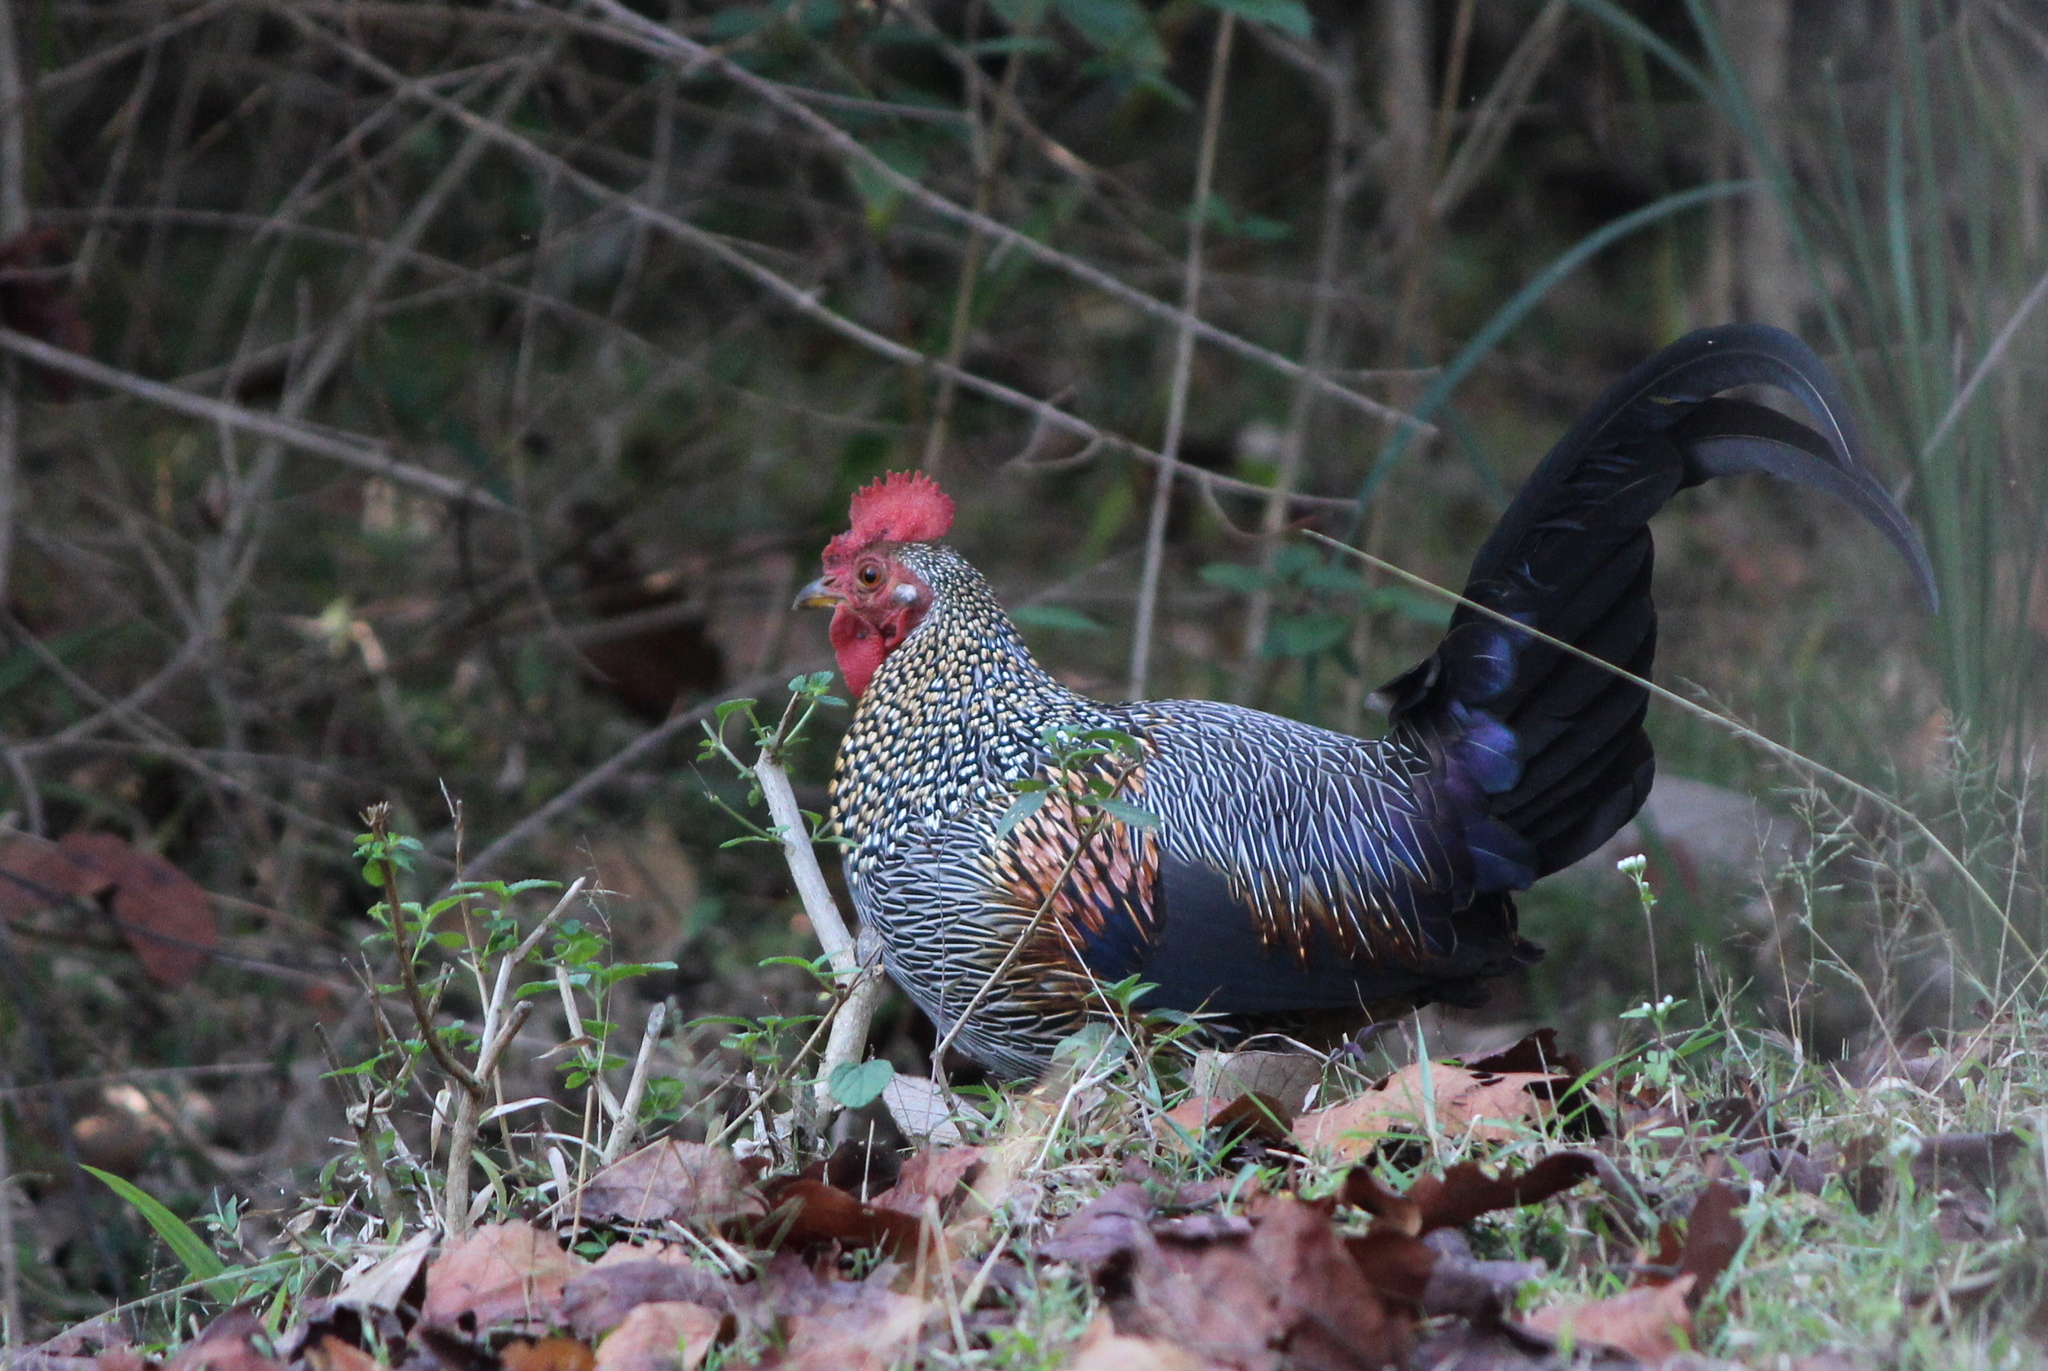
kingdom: Animalia
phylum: Chordata
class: Aves
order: Galliformes
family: Phasianidae
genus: Gallus
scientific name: Gallus sonneratii
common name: Grey junglefowl
